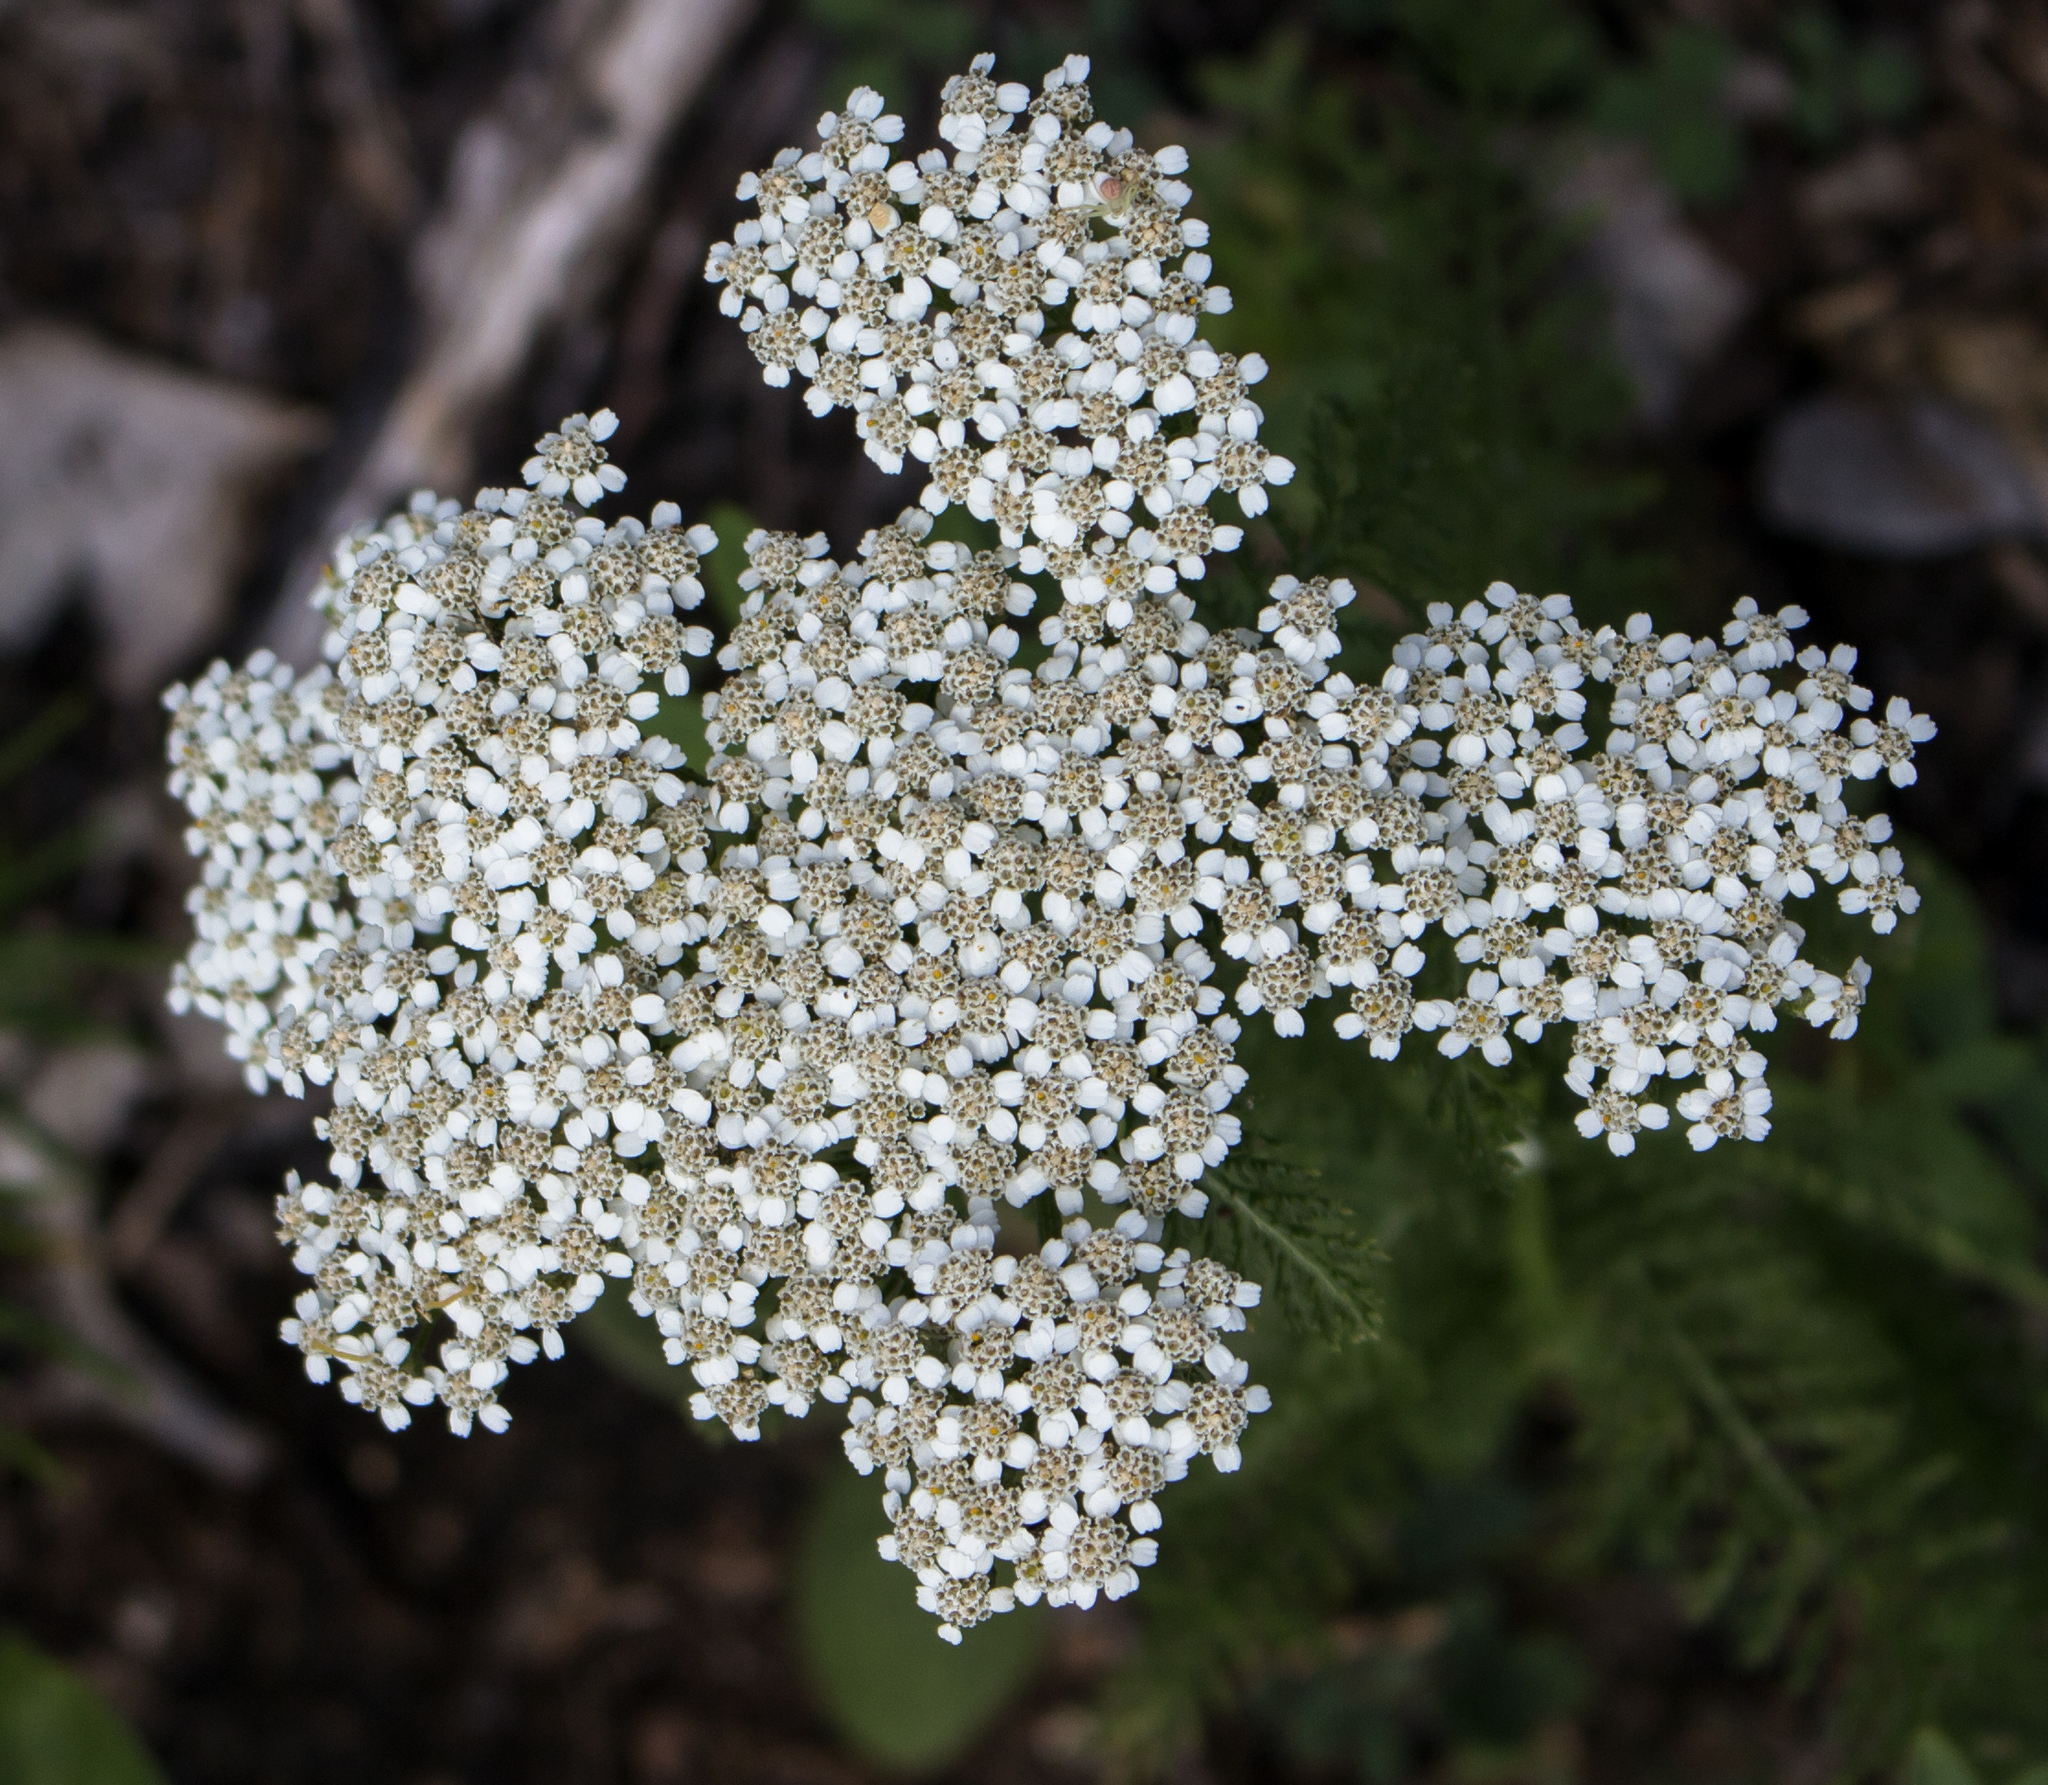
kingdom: Plantae
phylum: Tracheophyta
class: Magnoliopsida
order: Asterales
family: Asteraceae
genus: Achillea
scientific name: Achillea millefolium
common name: Yarrow
